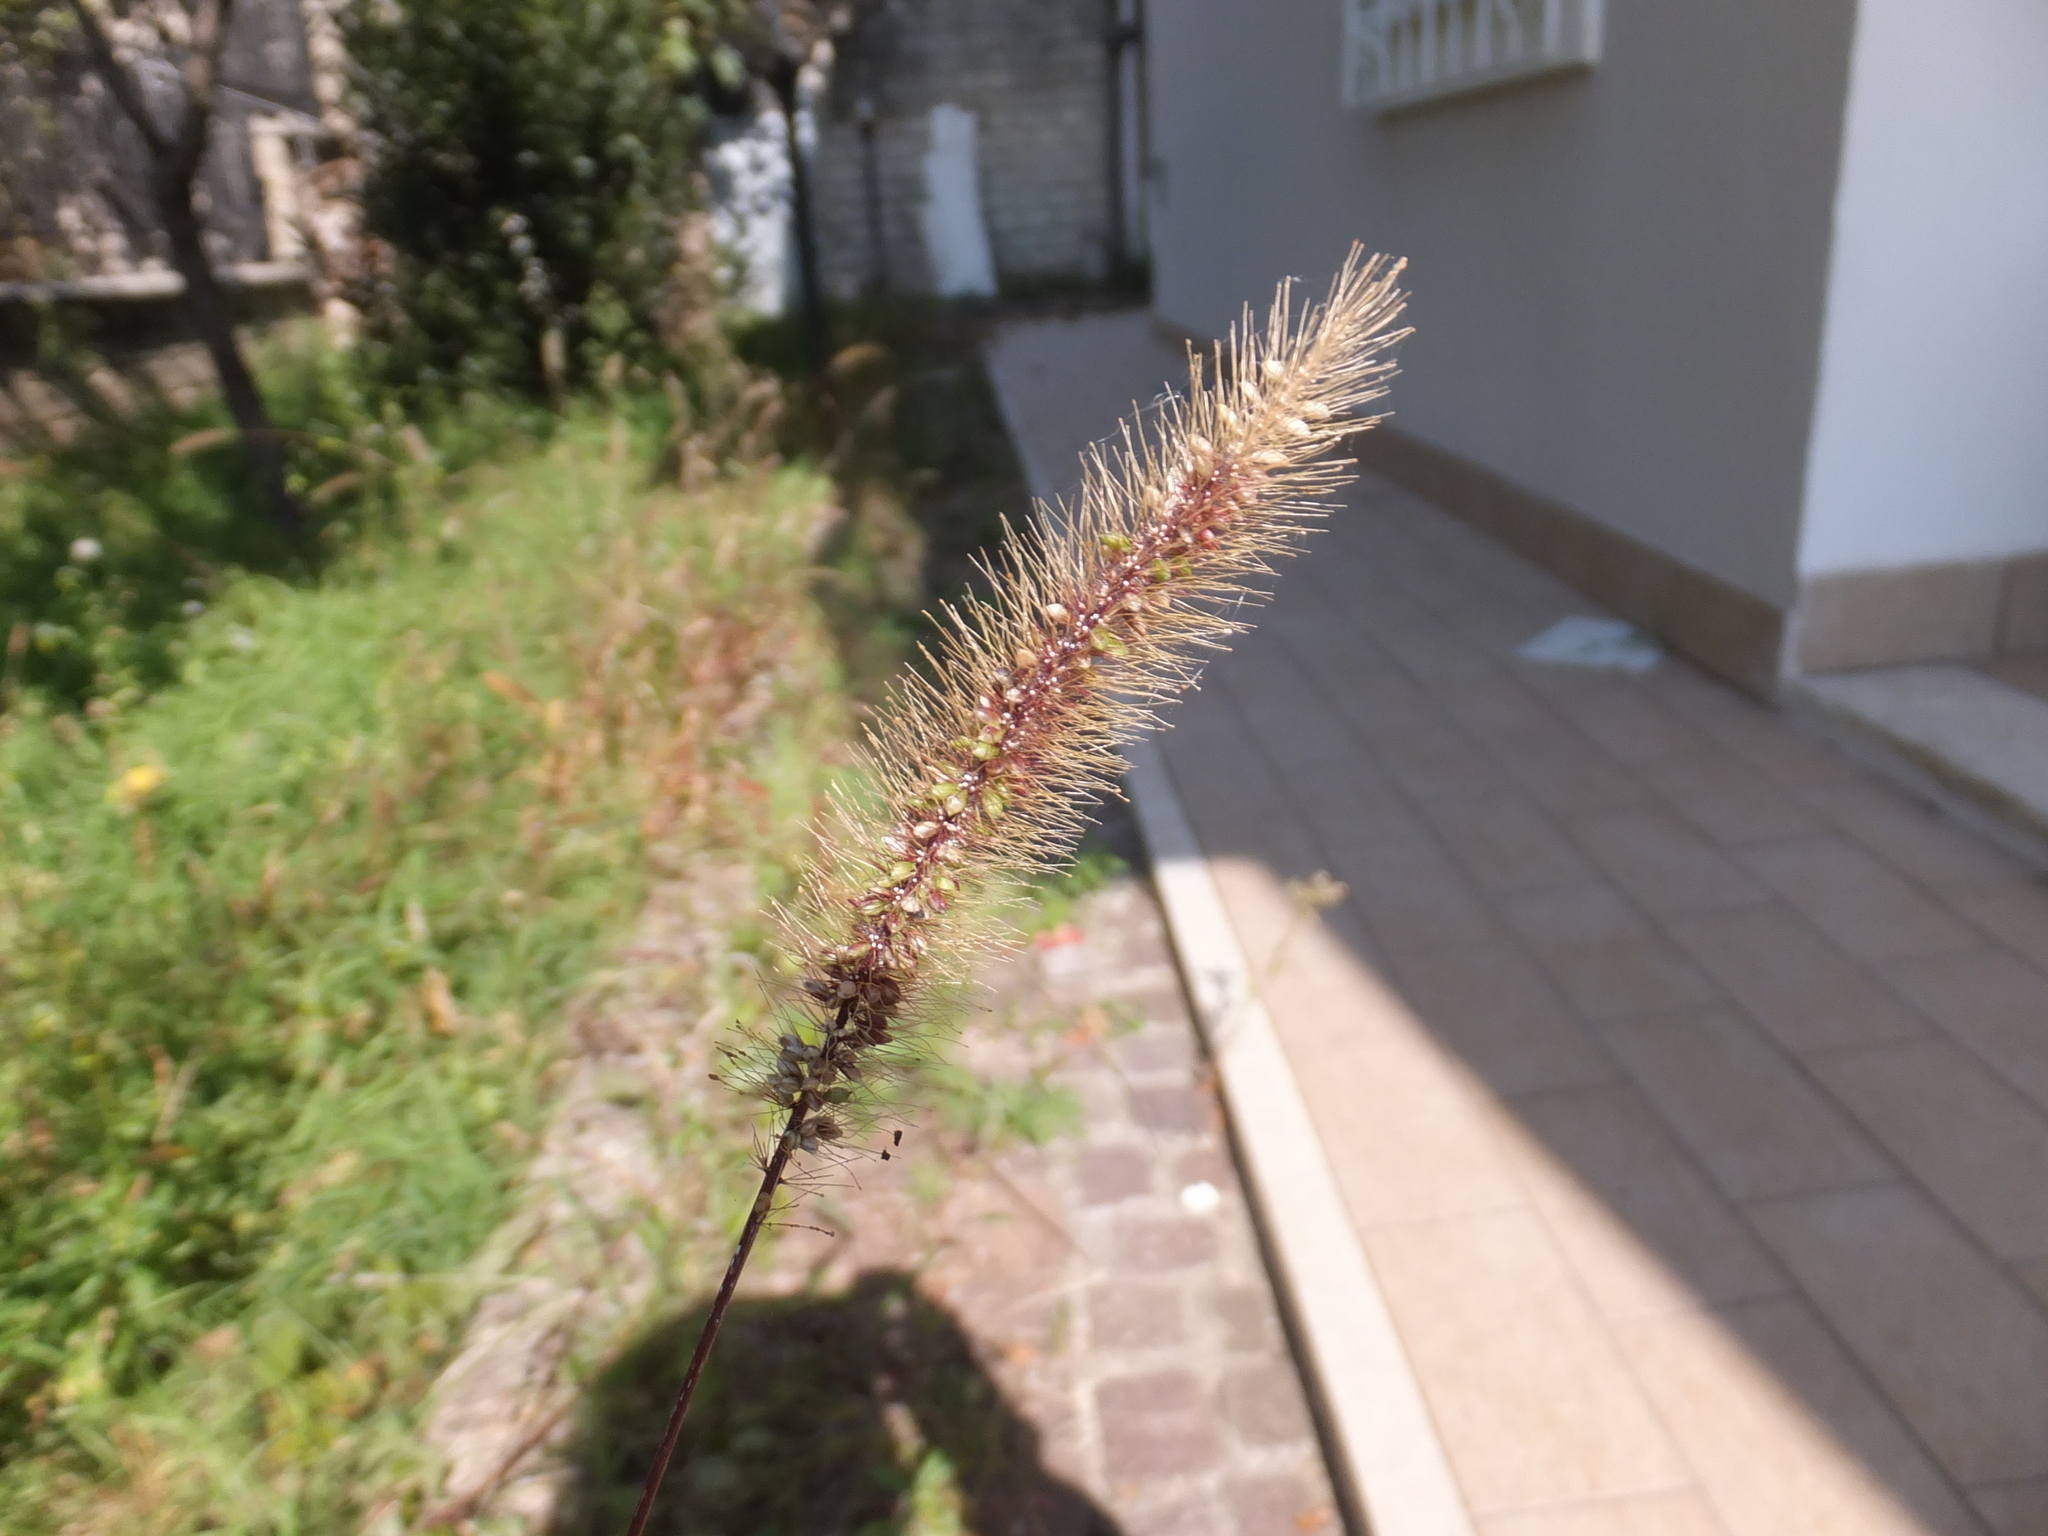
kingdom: Plantae
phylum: Tracheophyta
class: Liliopsida
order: Poales
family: Poaceae
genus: Setaria
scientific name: Setaria viridis
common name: Green bristlegrass
